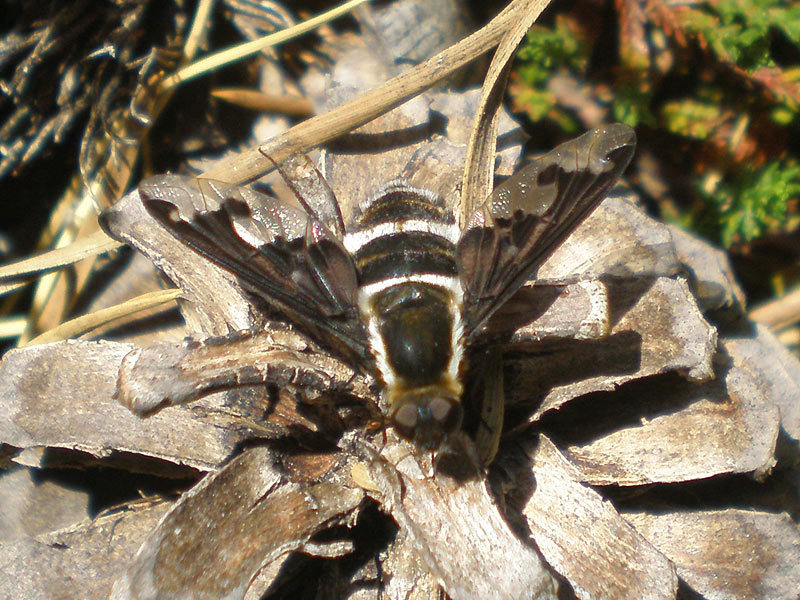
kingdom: Animalia
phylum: Arthropoda
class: Insecta
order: Diptera
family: Bombyliidae
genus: Hemipenthes
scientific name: Hemipenthes maura
